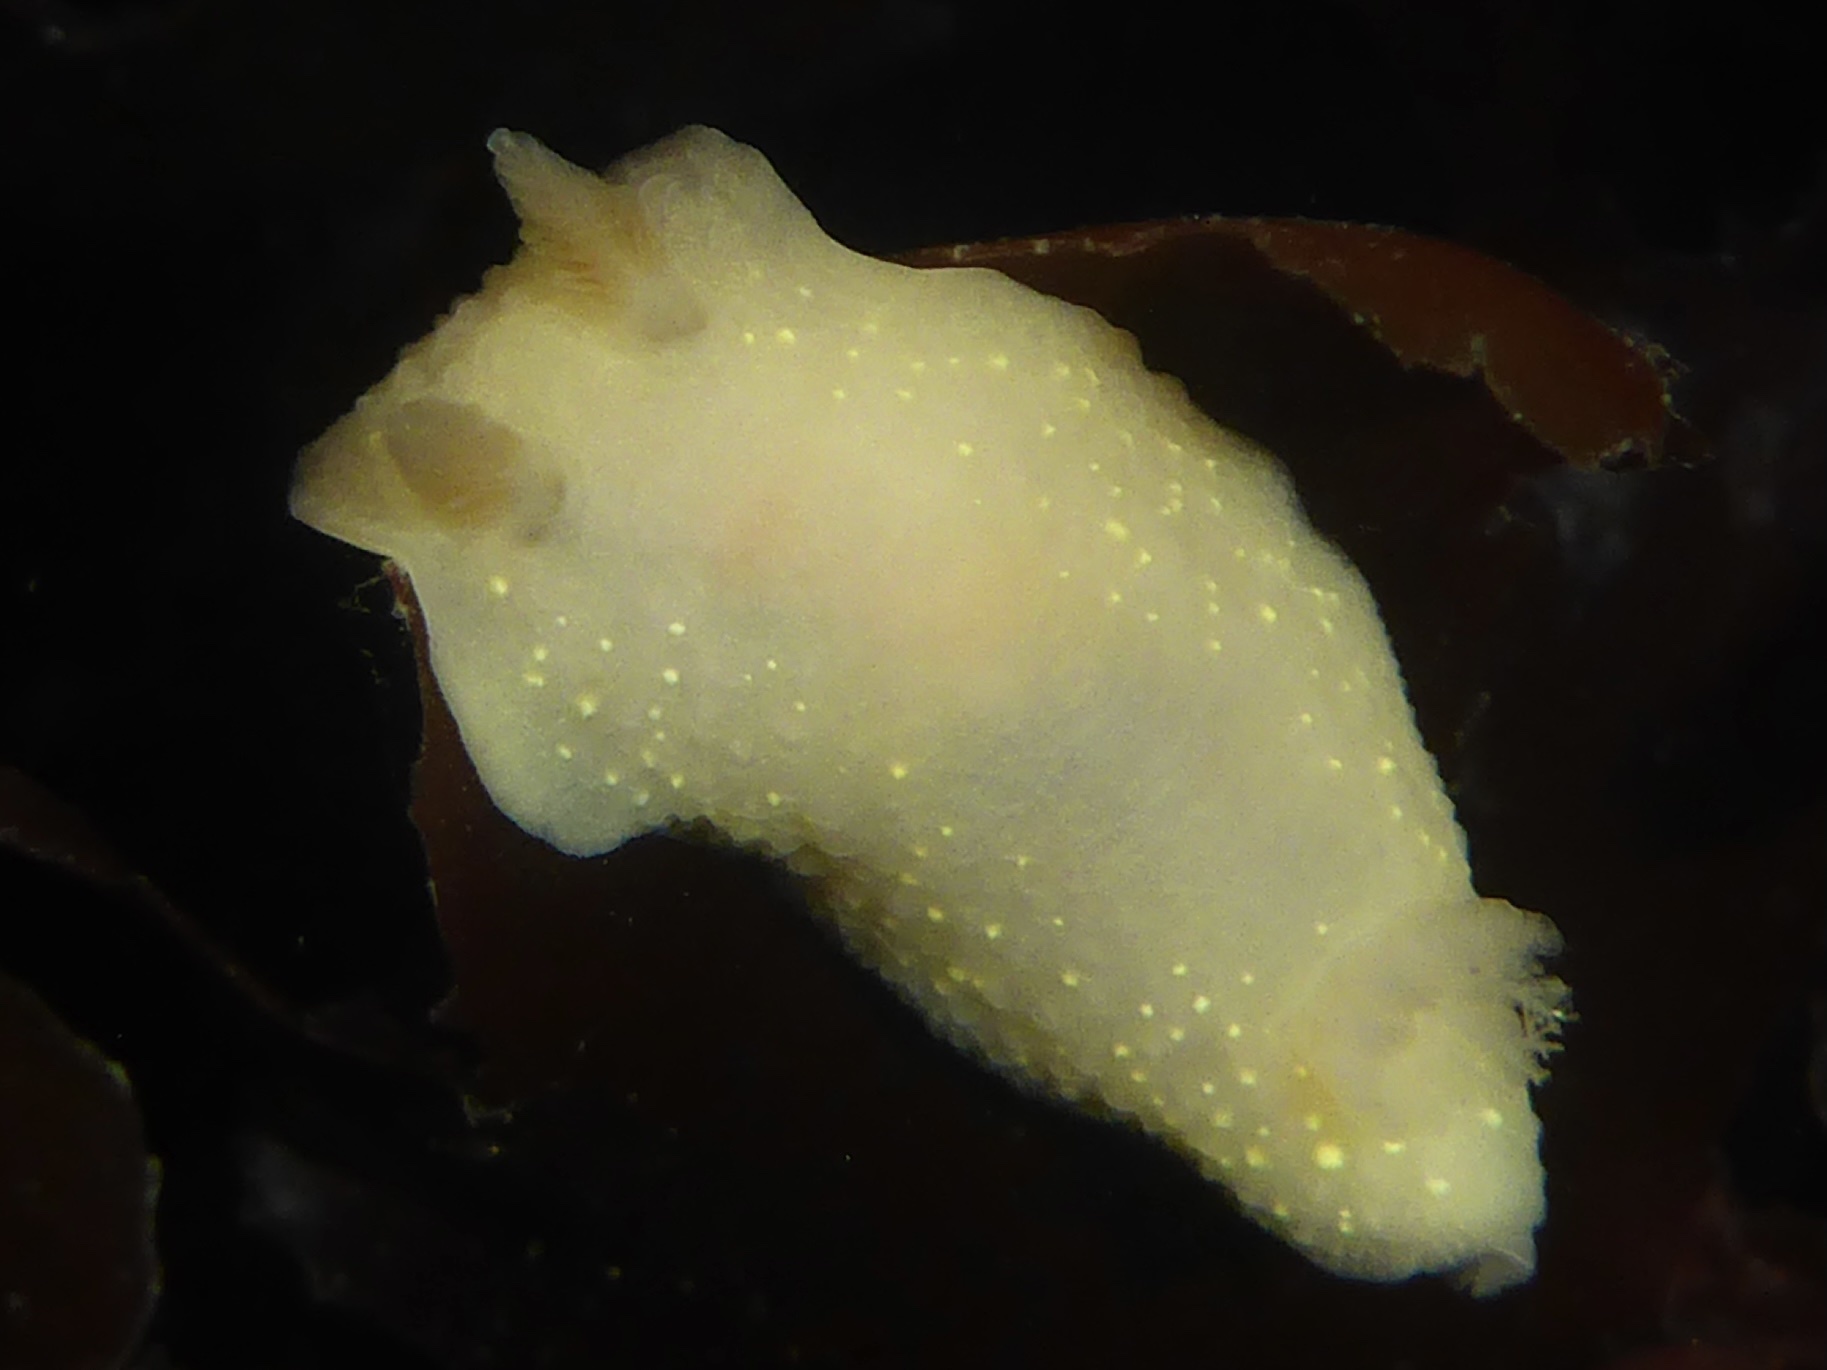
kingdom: Animalia
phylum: Mollusca
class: Gastropoda
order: Nudibranchia
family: Cadlinidae
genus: Cadlina
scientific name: Cadlina modesta
